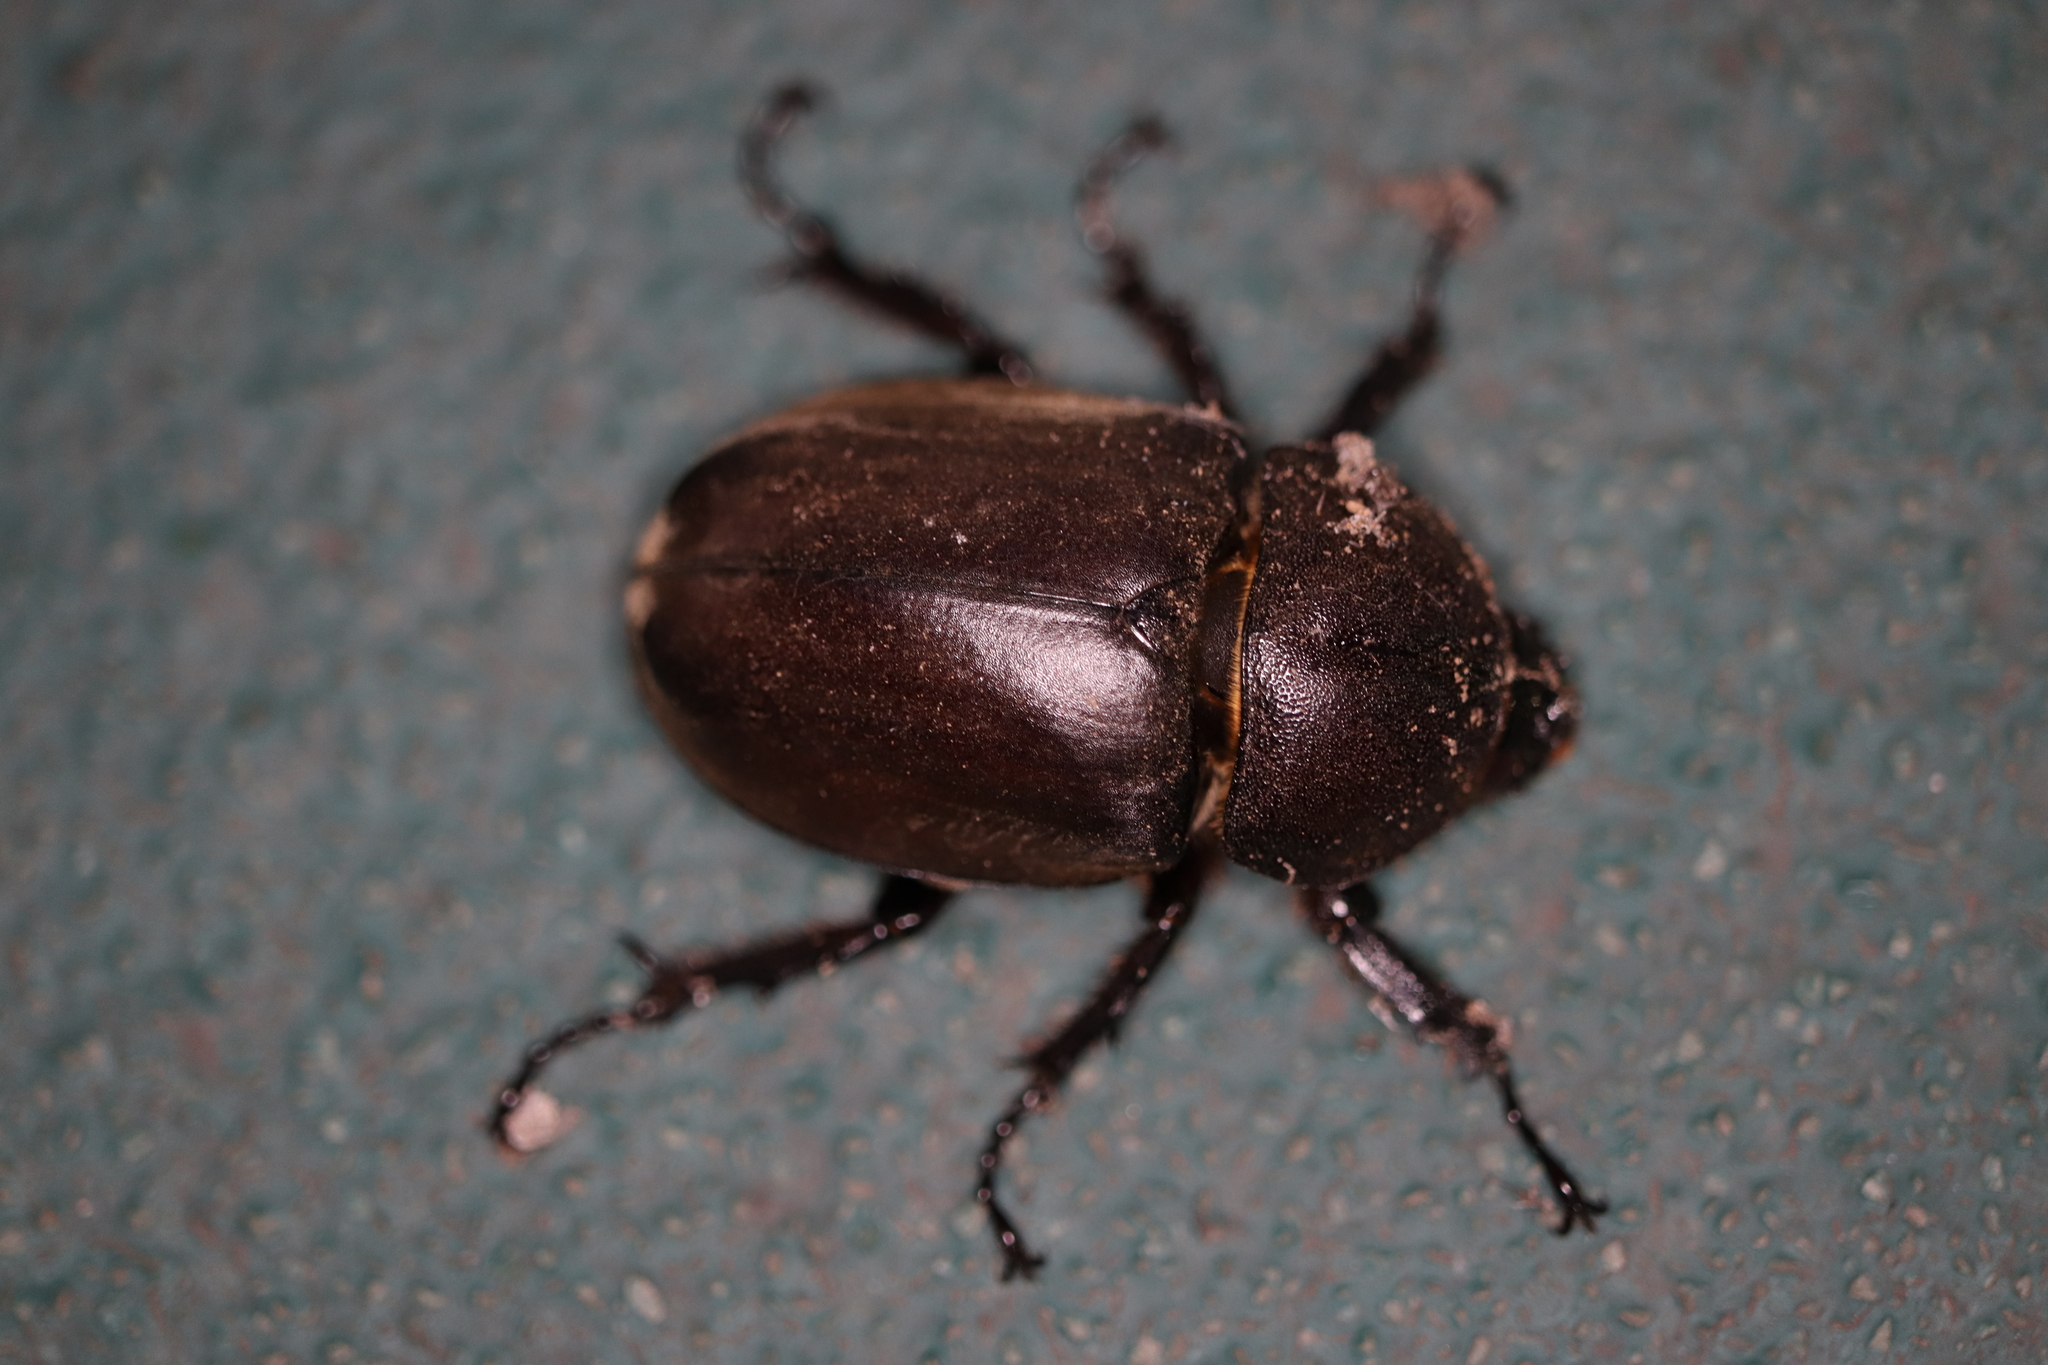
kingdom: Animalia
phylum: Arthropoda
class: Insecta
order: Coleoptera
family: Scarabaeidae
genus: Trypoxylus
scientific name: Trypoxylus dichotomus
